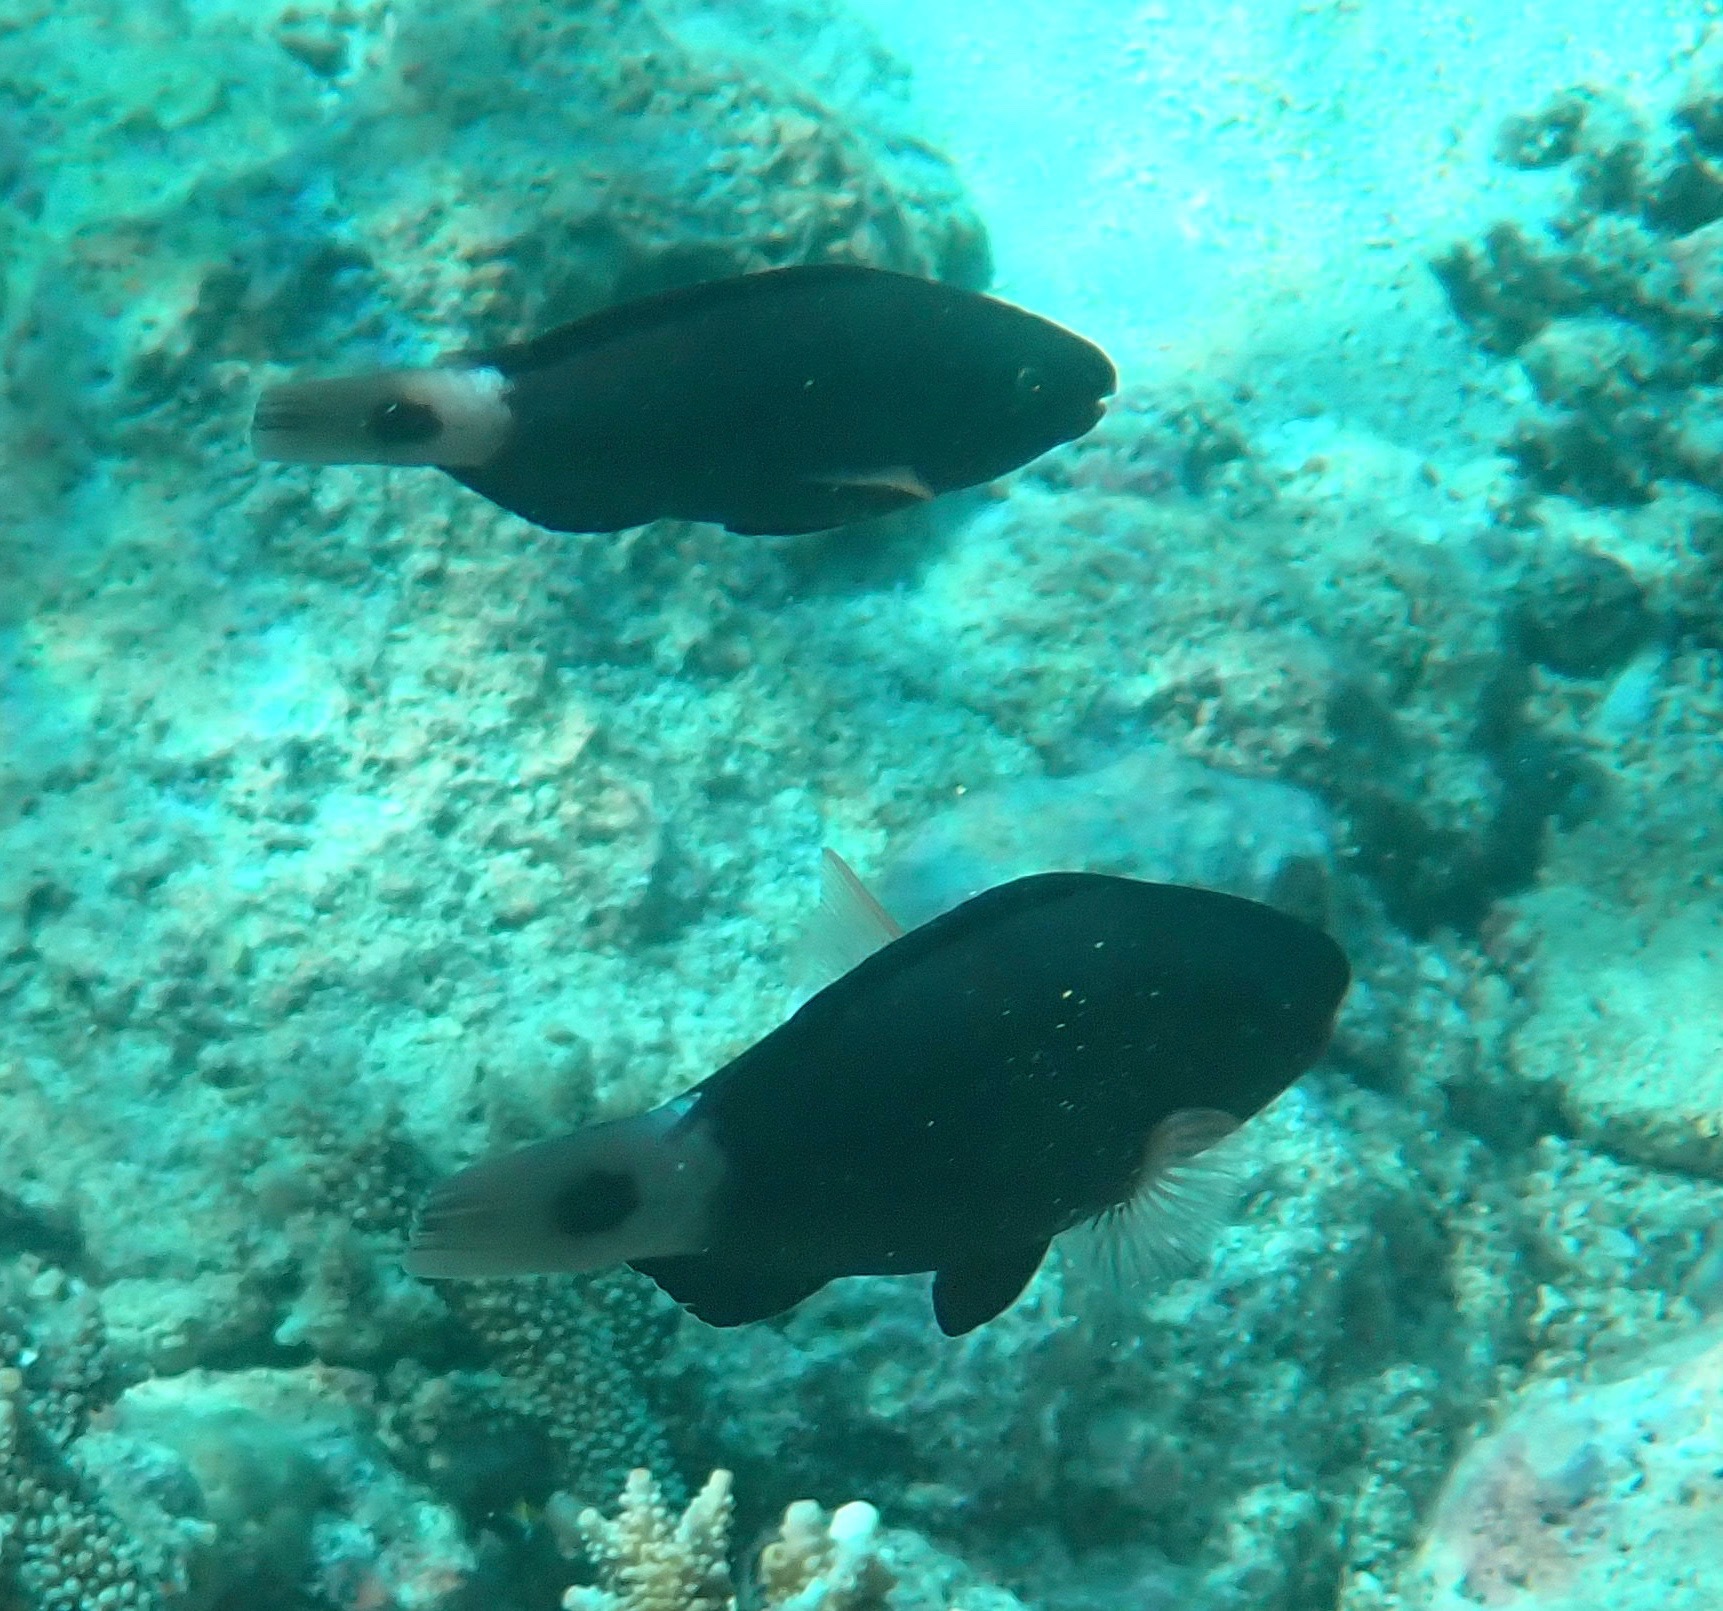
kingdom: Animalia
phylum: Chordata
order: Perciformes
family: Scaridae
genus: Chlorurus
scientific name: Chlorurus spilurus
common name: Bullethead parrotfish
